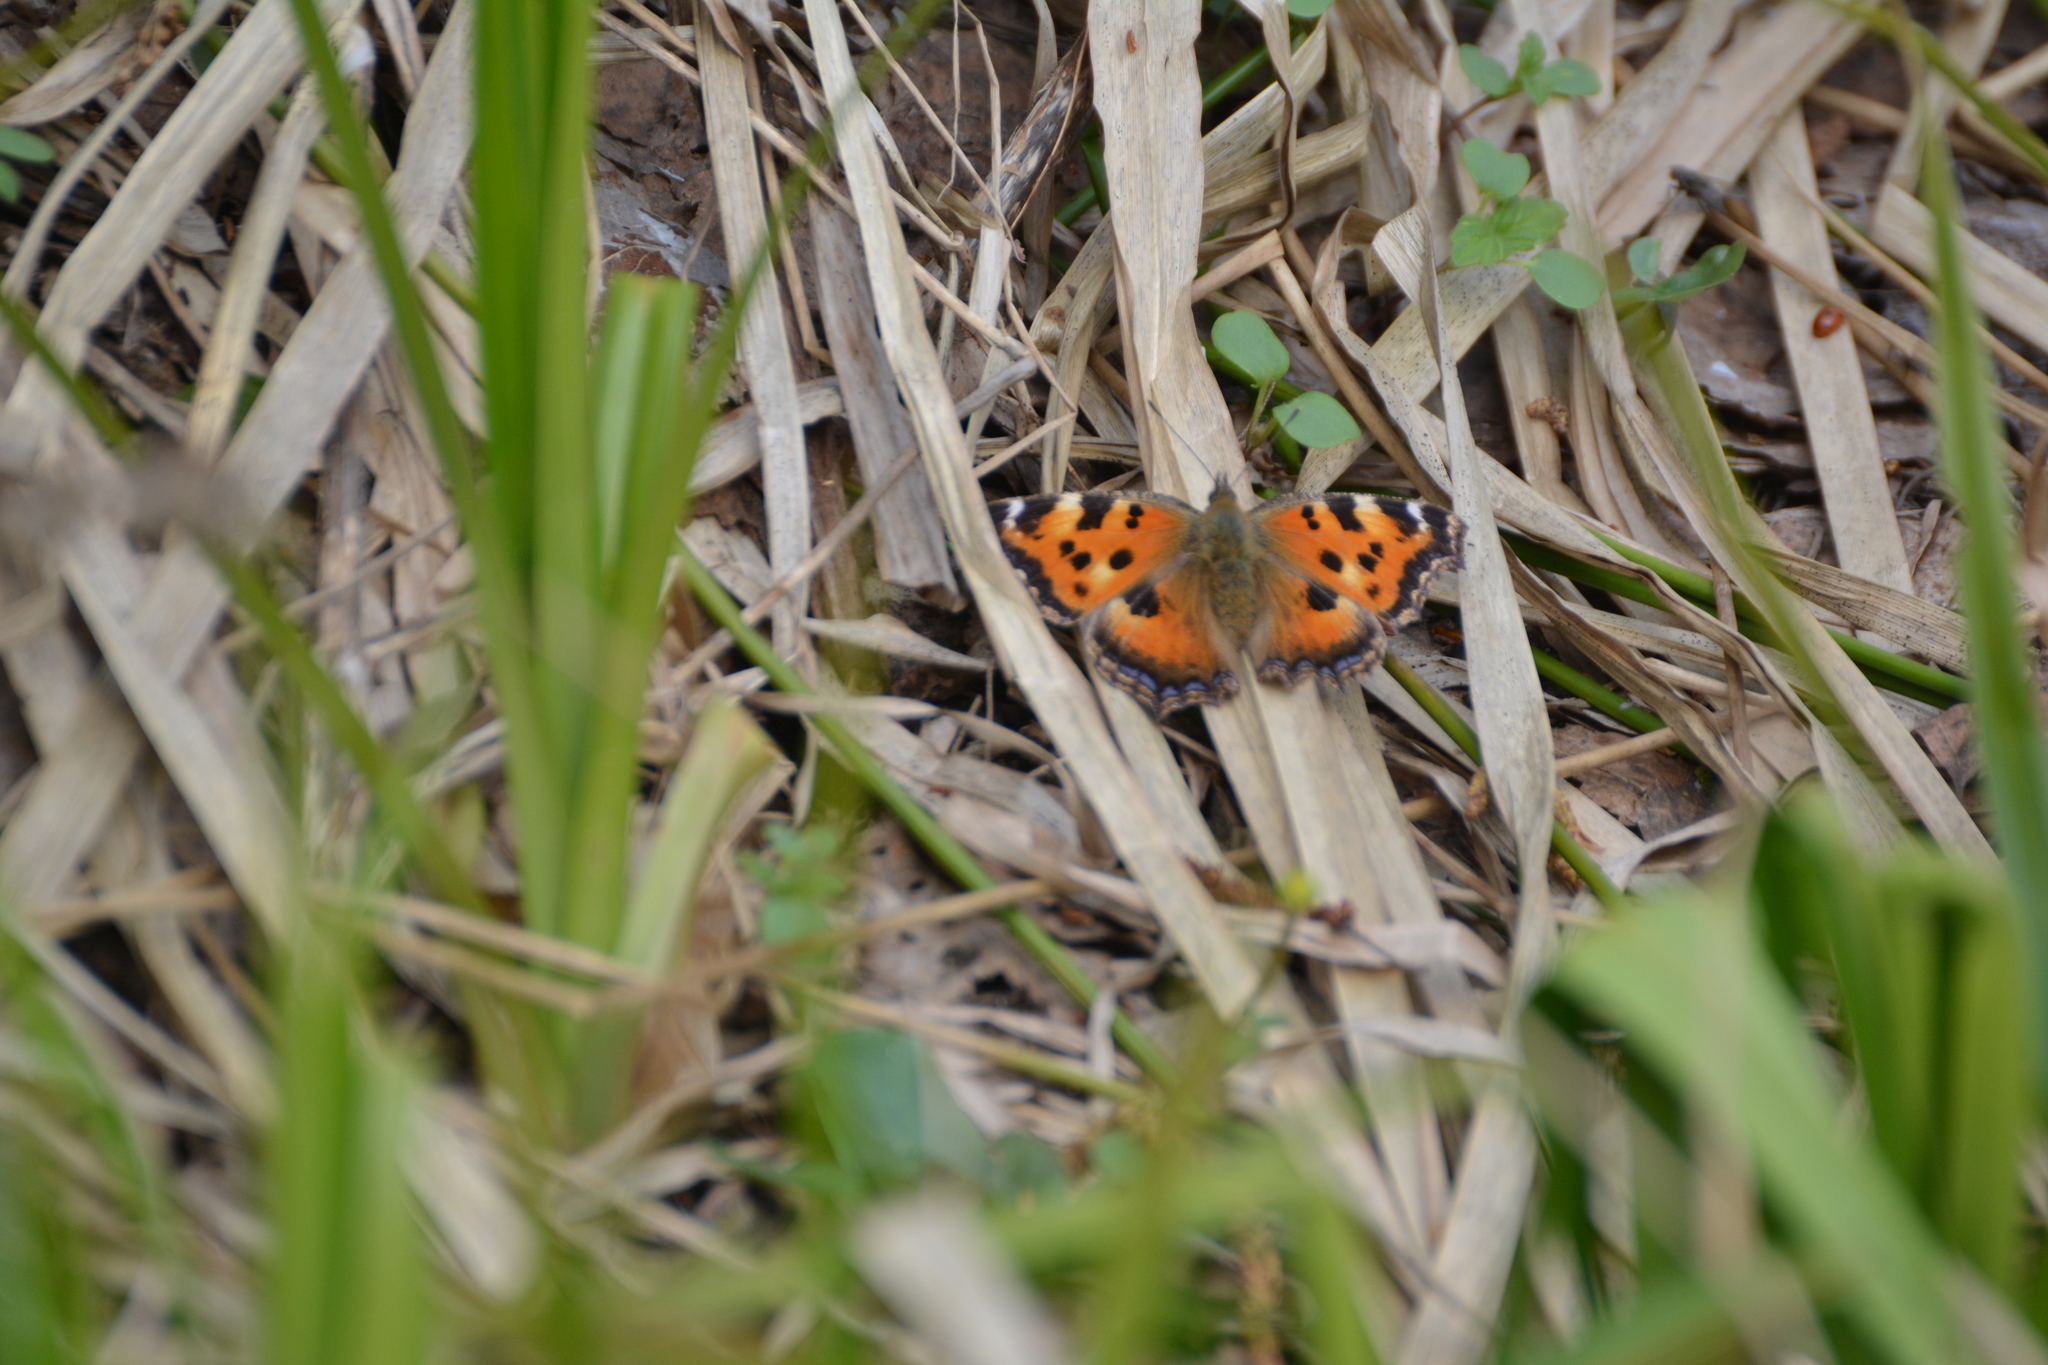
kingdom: Animalia
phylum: Arthropoda
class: Insecta
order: Lepidoptera
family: Nymphalidae
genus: Nymphalis
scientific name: Nymphalis xanthomelas
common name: Scarce tortoiseshell
